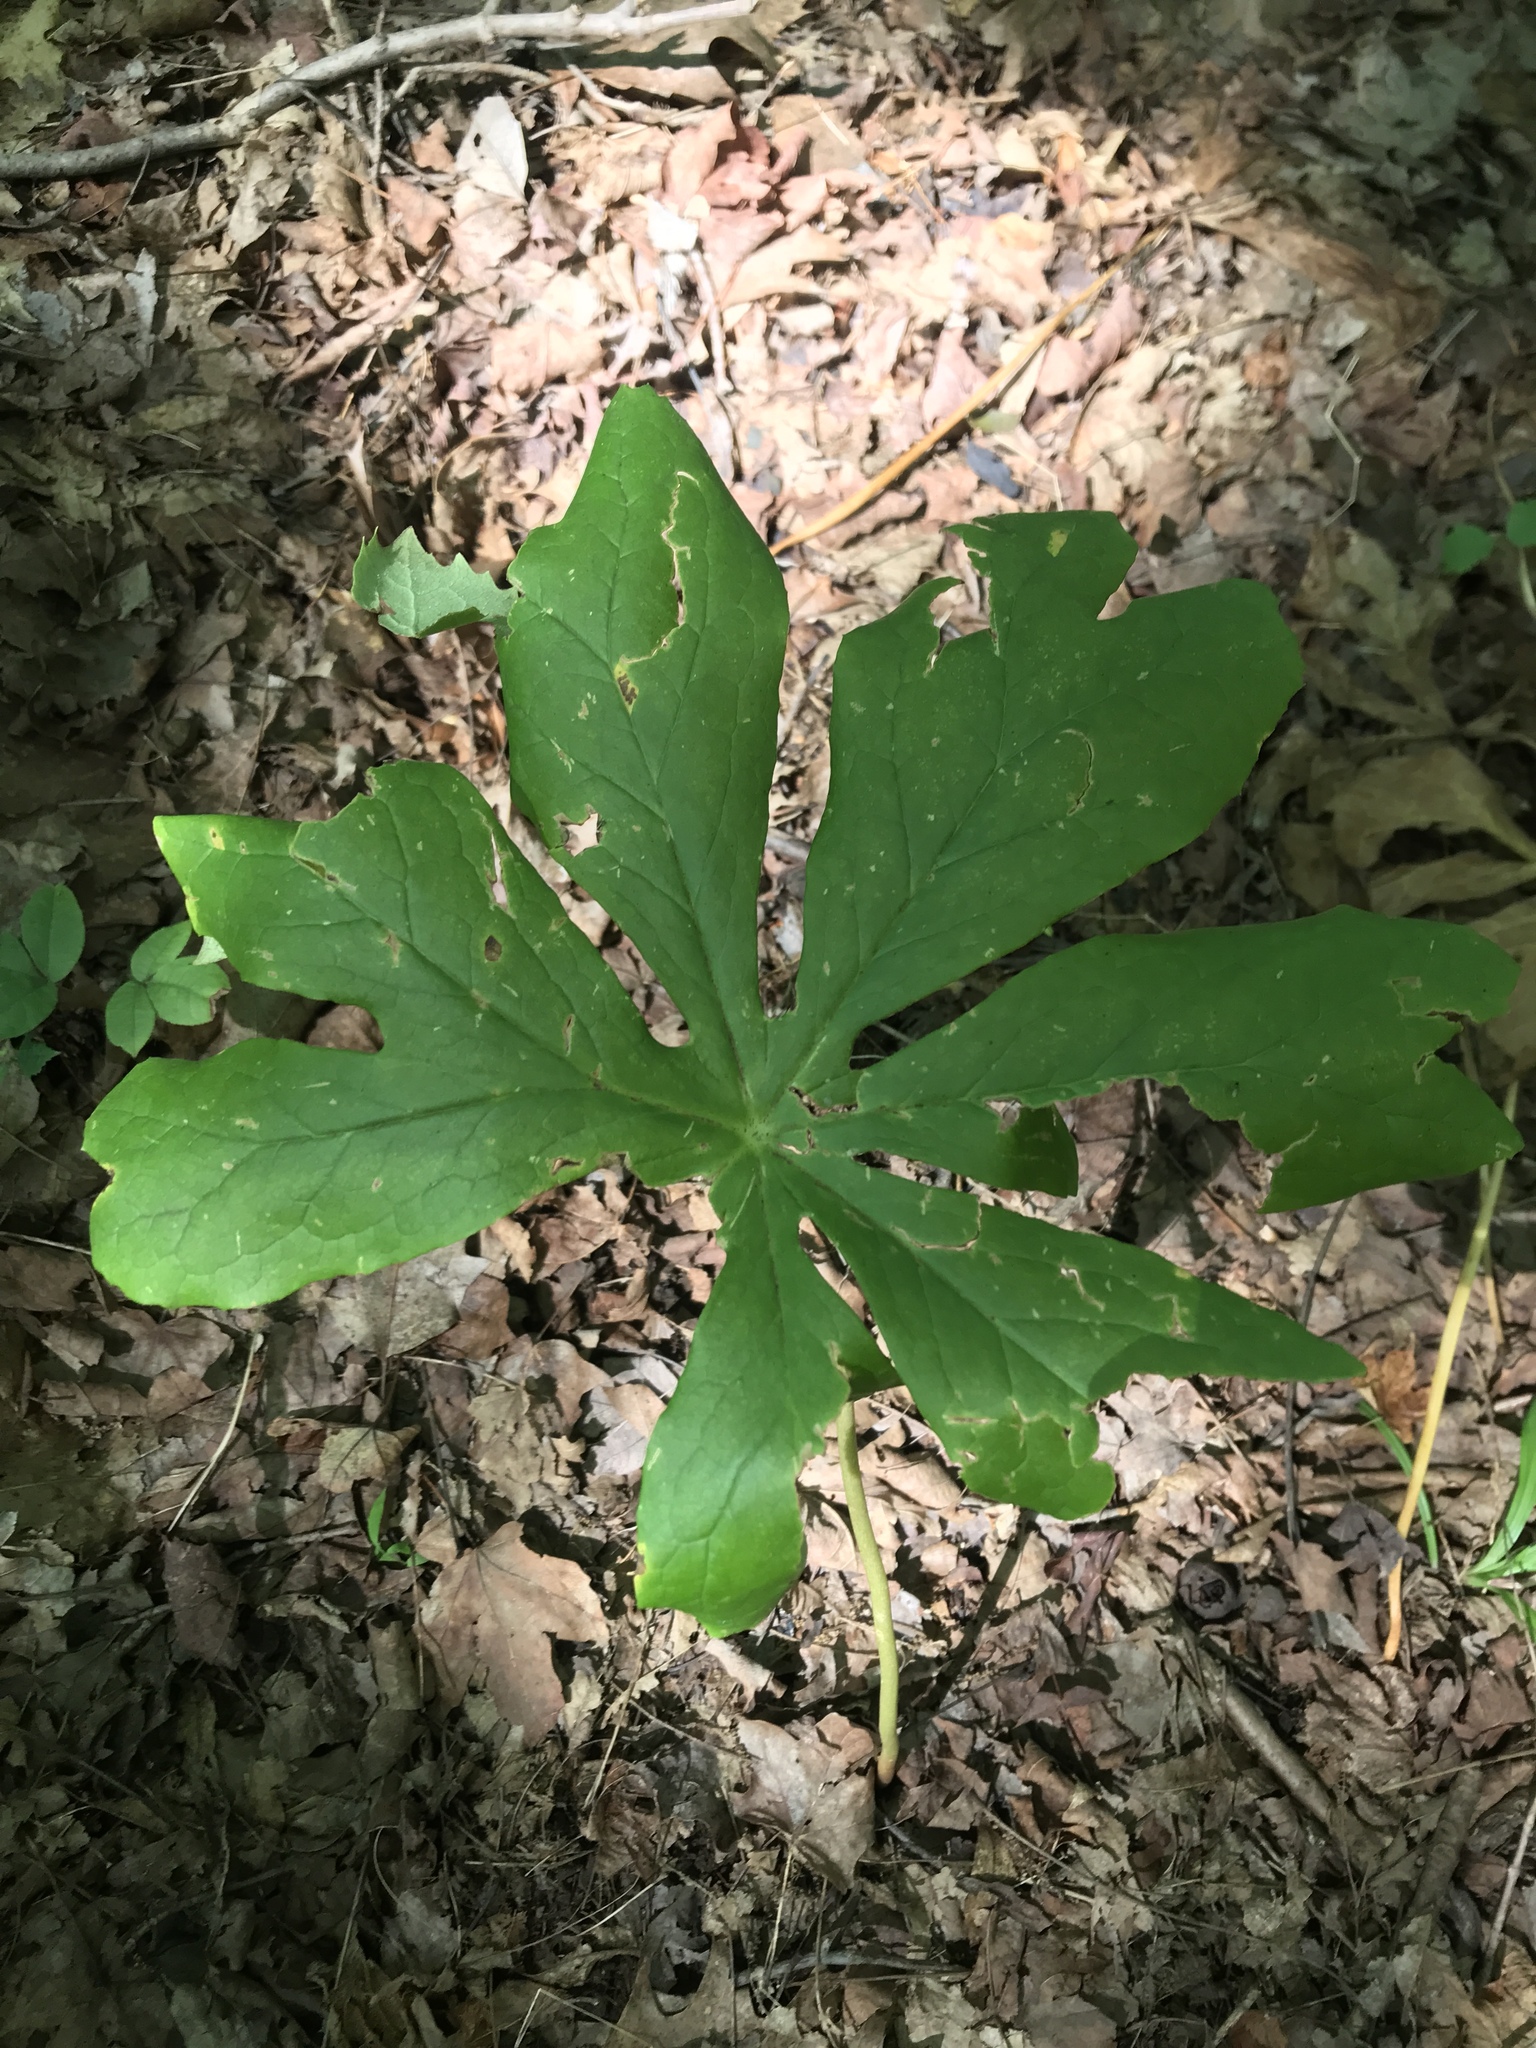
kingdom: Plantae
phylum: Tracheophyta
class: Magnoliopsida
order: Ranunculales
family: Berberidaceae
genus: Podophyllum
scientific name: Podophyllum peltatum
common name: Wild mandrake
